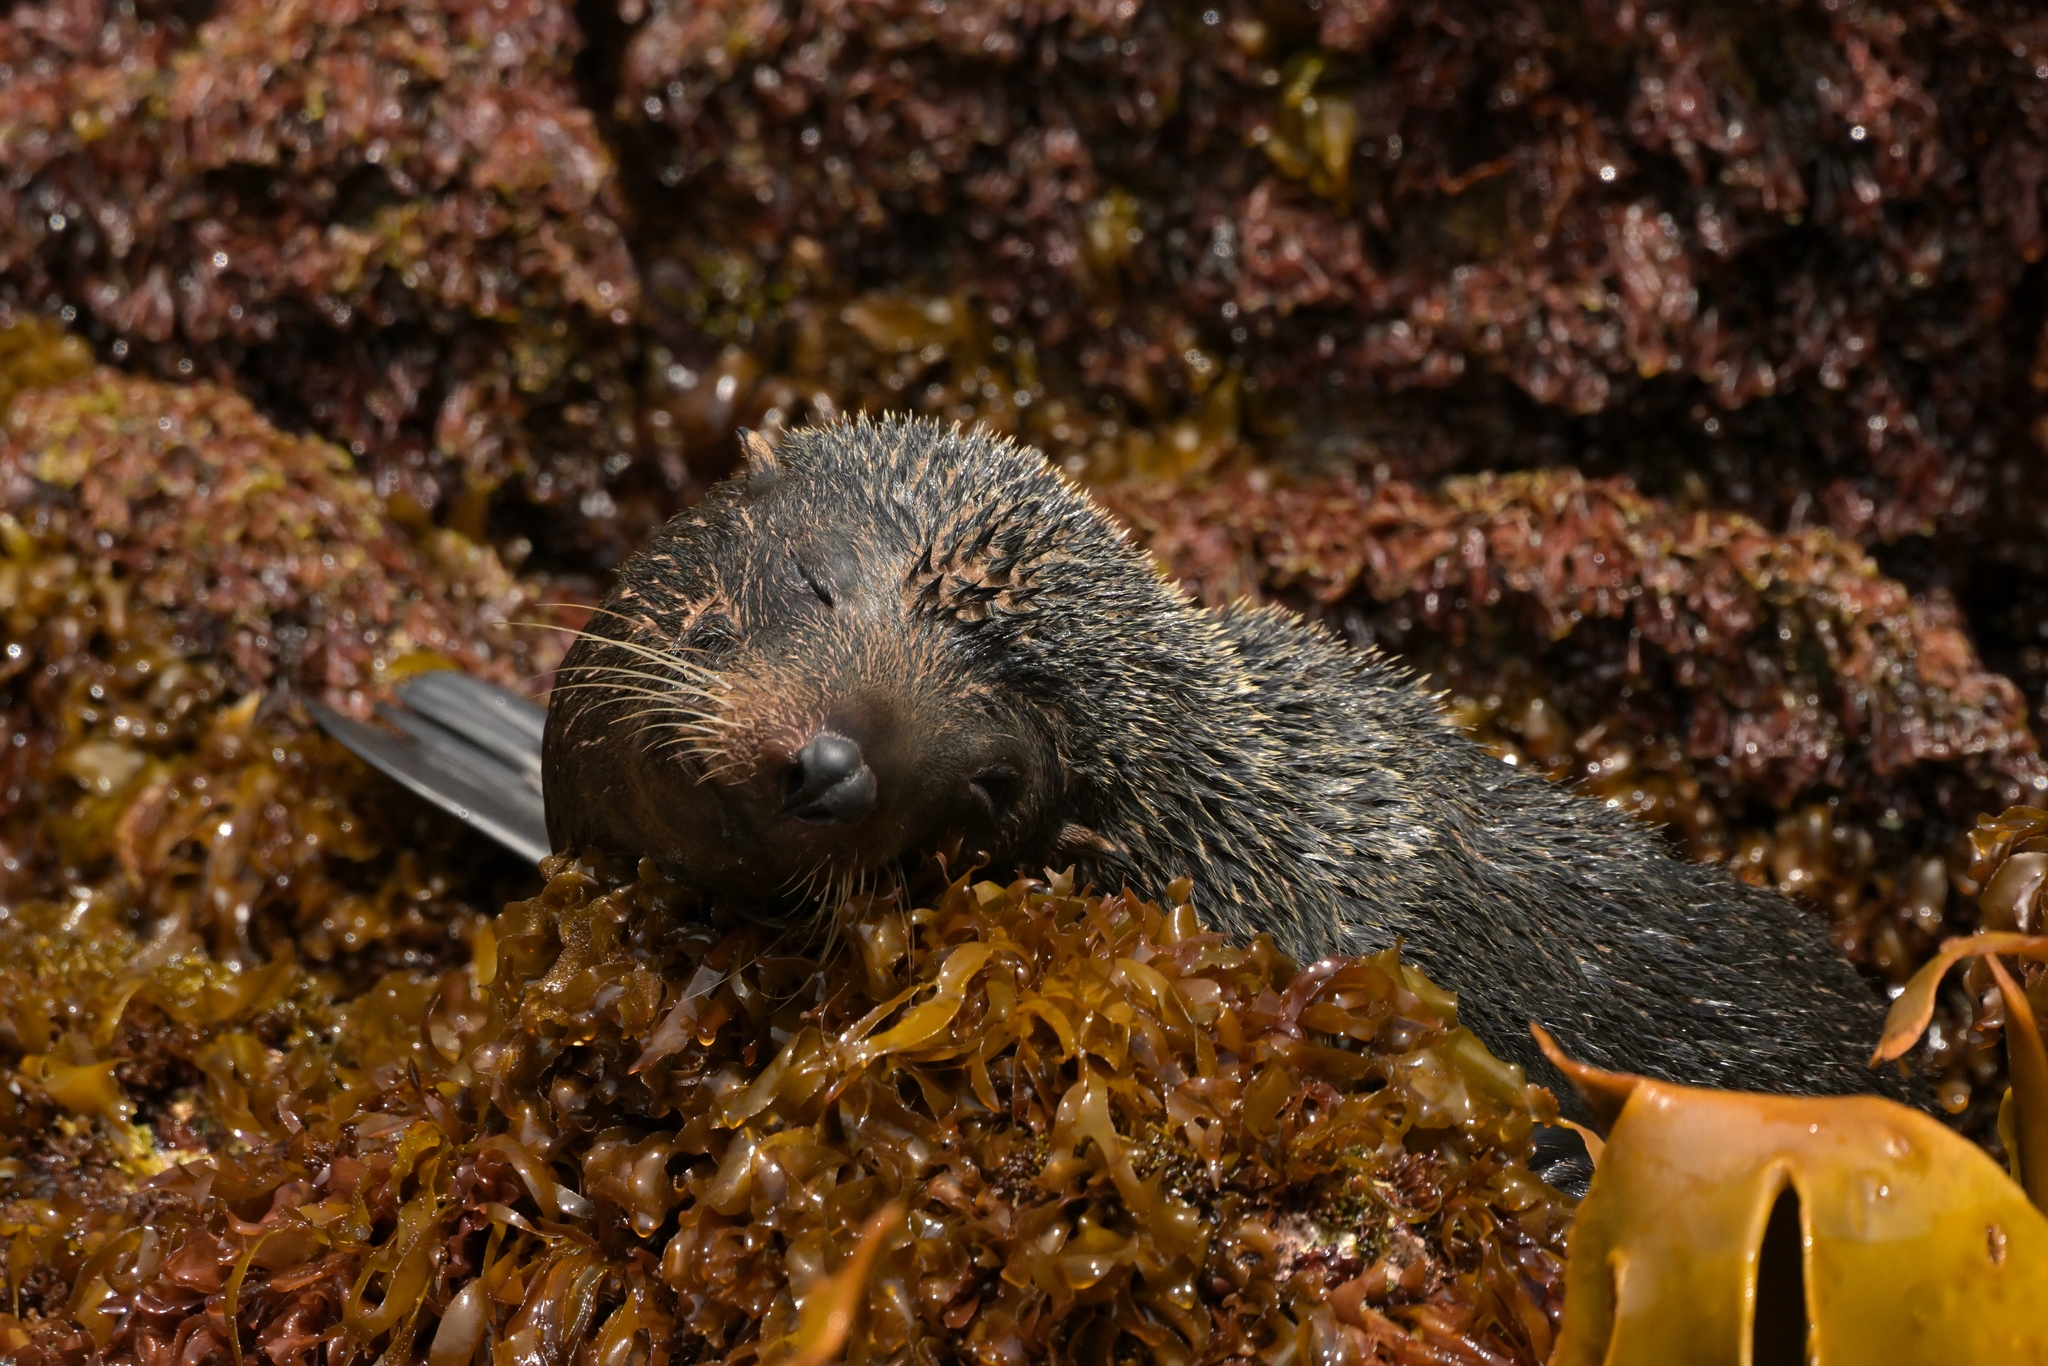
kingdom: Animalia
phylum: Chordata
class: Mammalia
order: Carnivora
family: Otariidae
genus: Arctocephalus
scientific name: Arctocephalus forsteri
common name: New zealand fur seal
